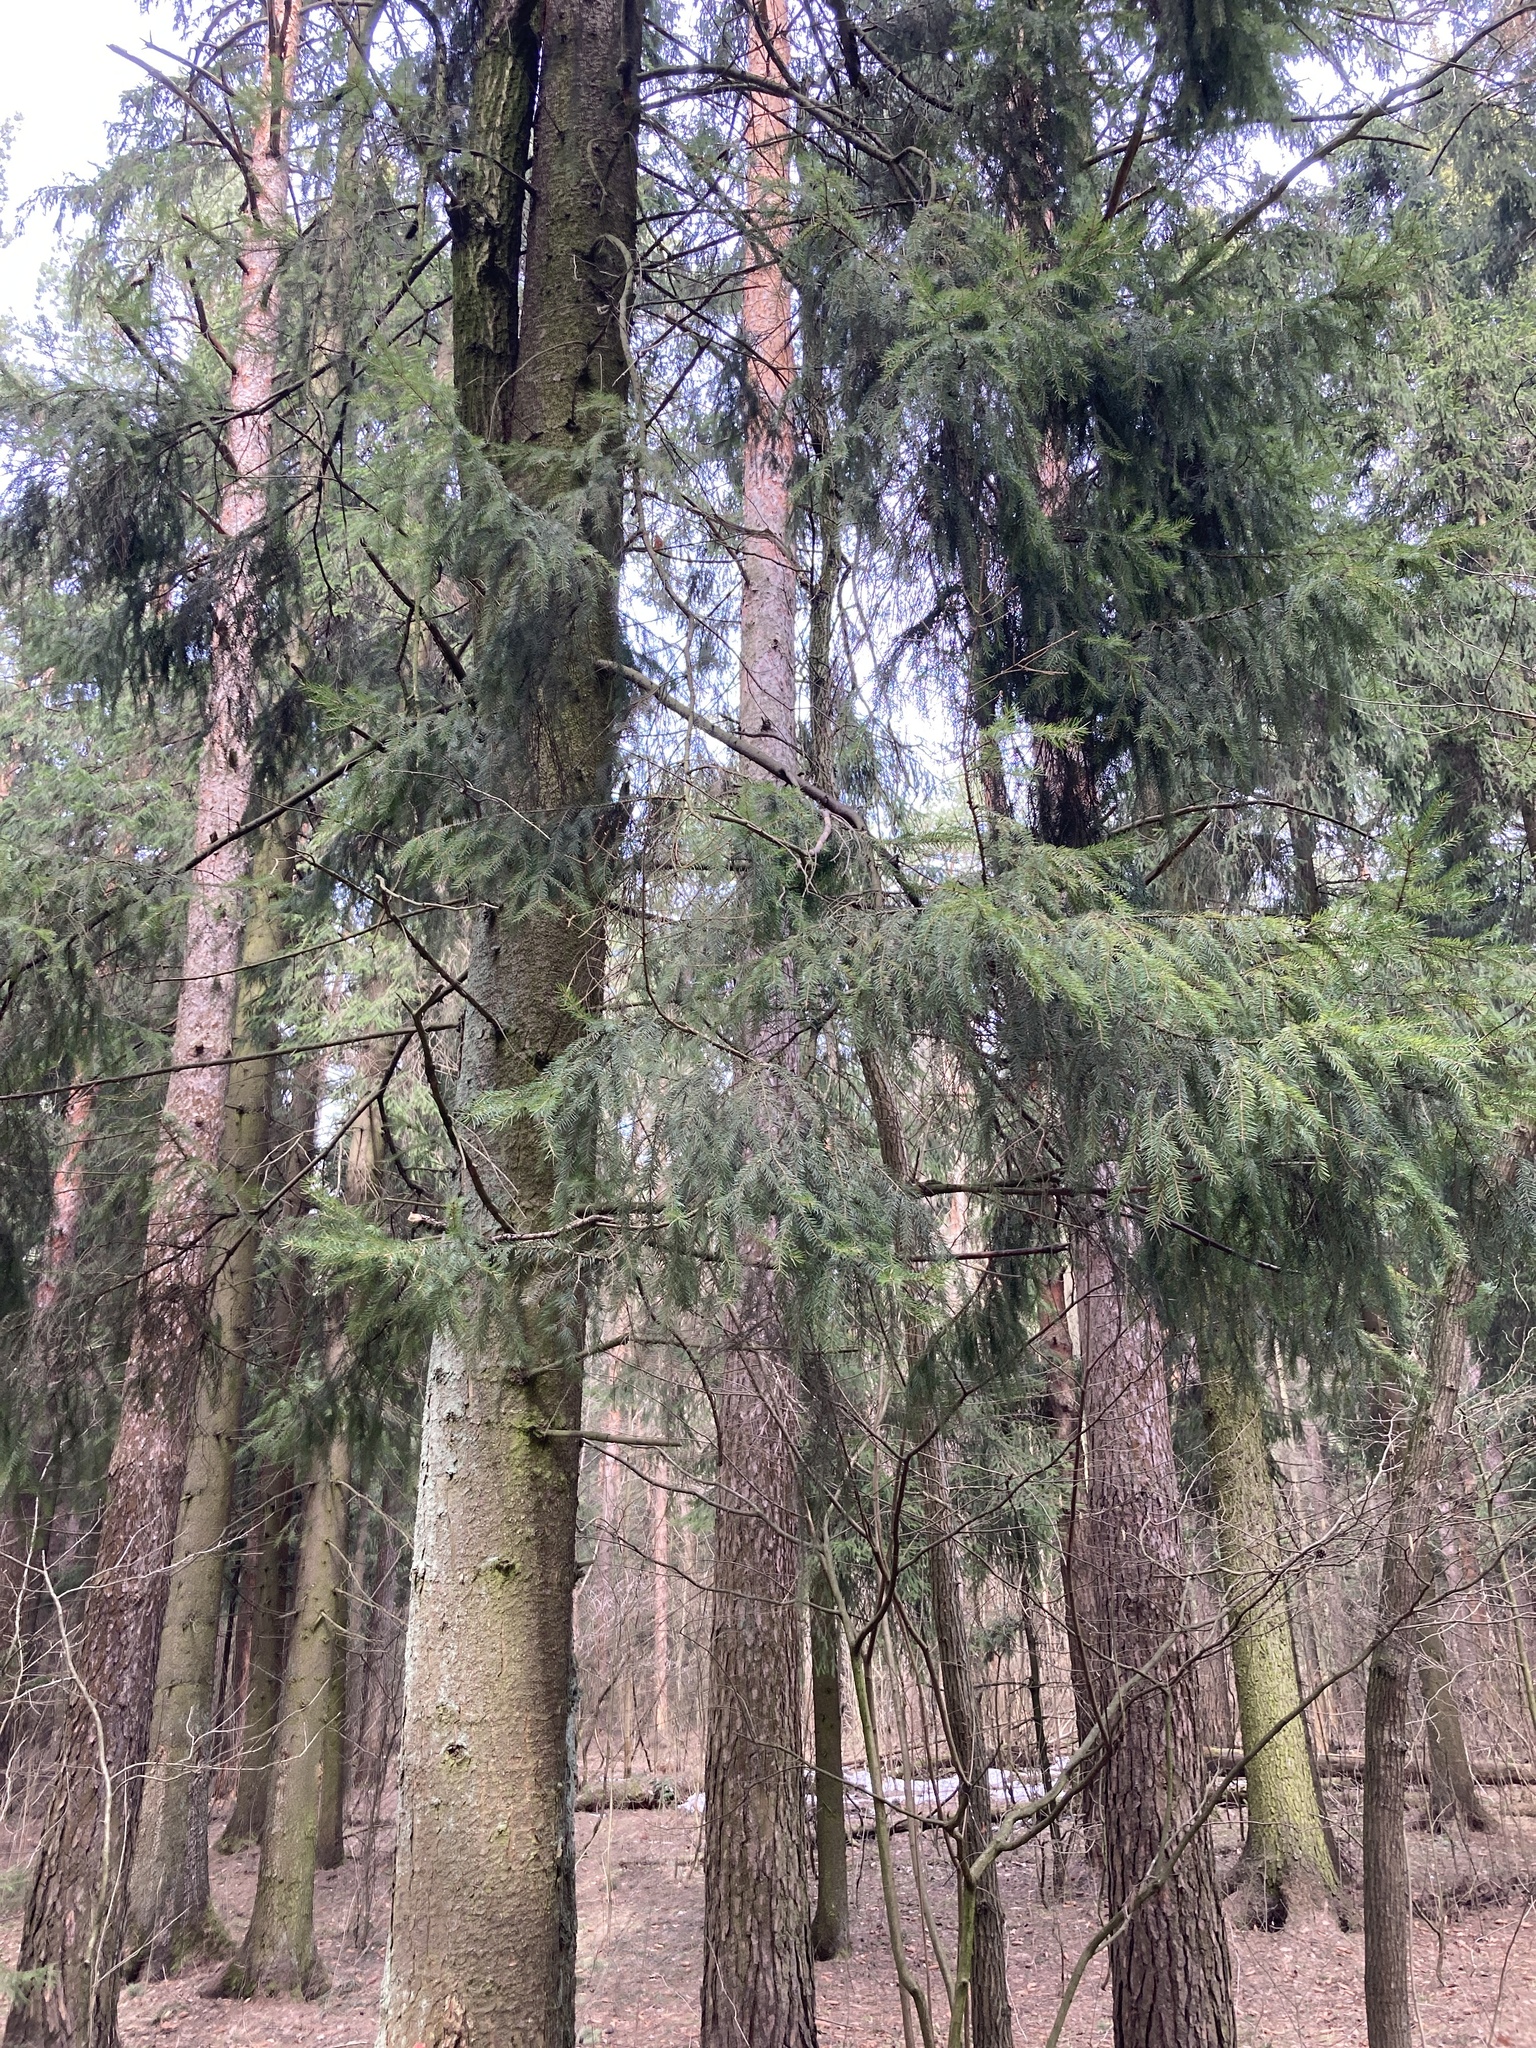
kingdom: Plantae
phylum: Tracheophyta
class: Pinopsida
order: Pinales
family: Pinaceae
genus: Picea
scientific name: Picea abies
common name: Norway spruce
